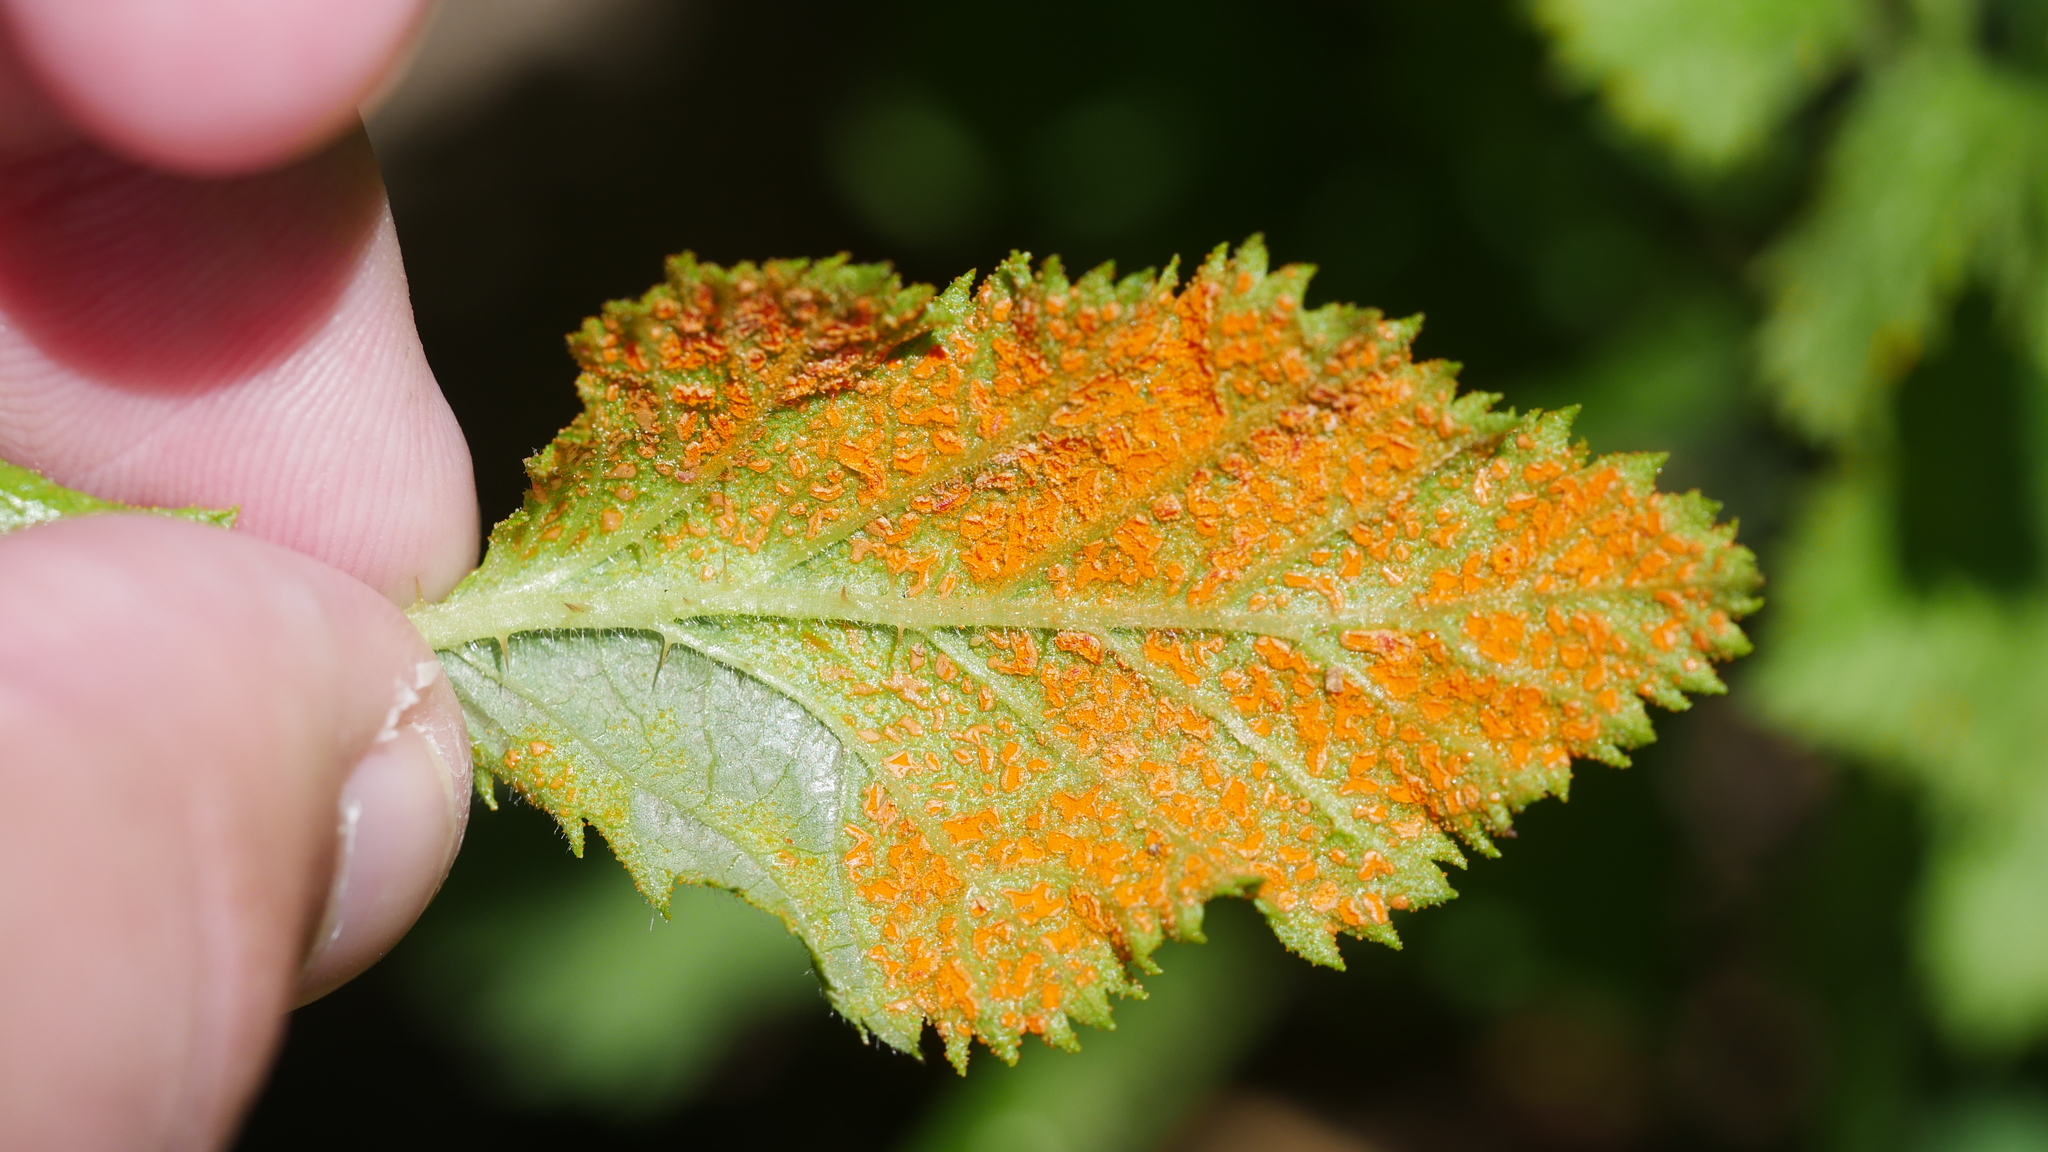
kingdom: Fungi
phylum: Basidiomycota
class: Pucciniomycetes
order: Pucciniales
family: Phragmidiaceae
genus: Arthuriomyces
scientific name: Arthuriomyces peckianus
